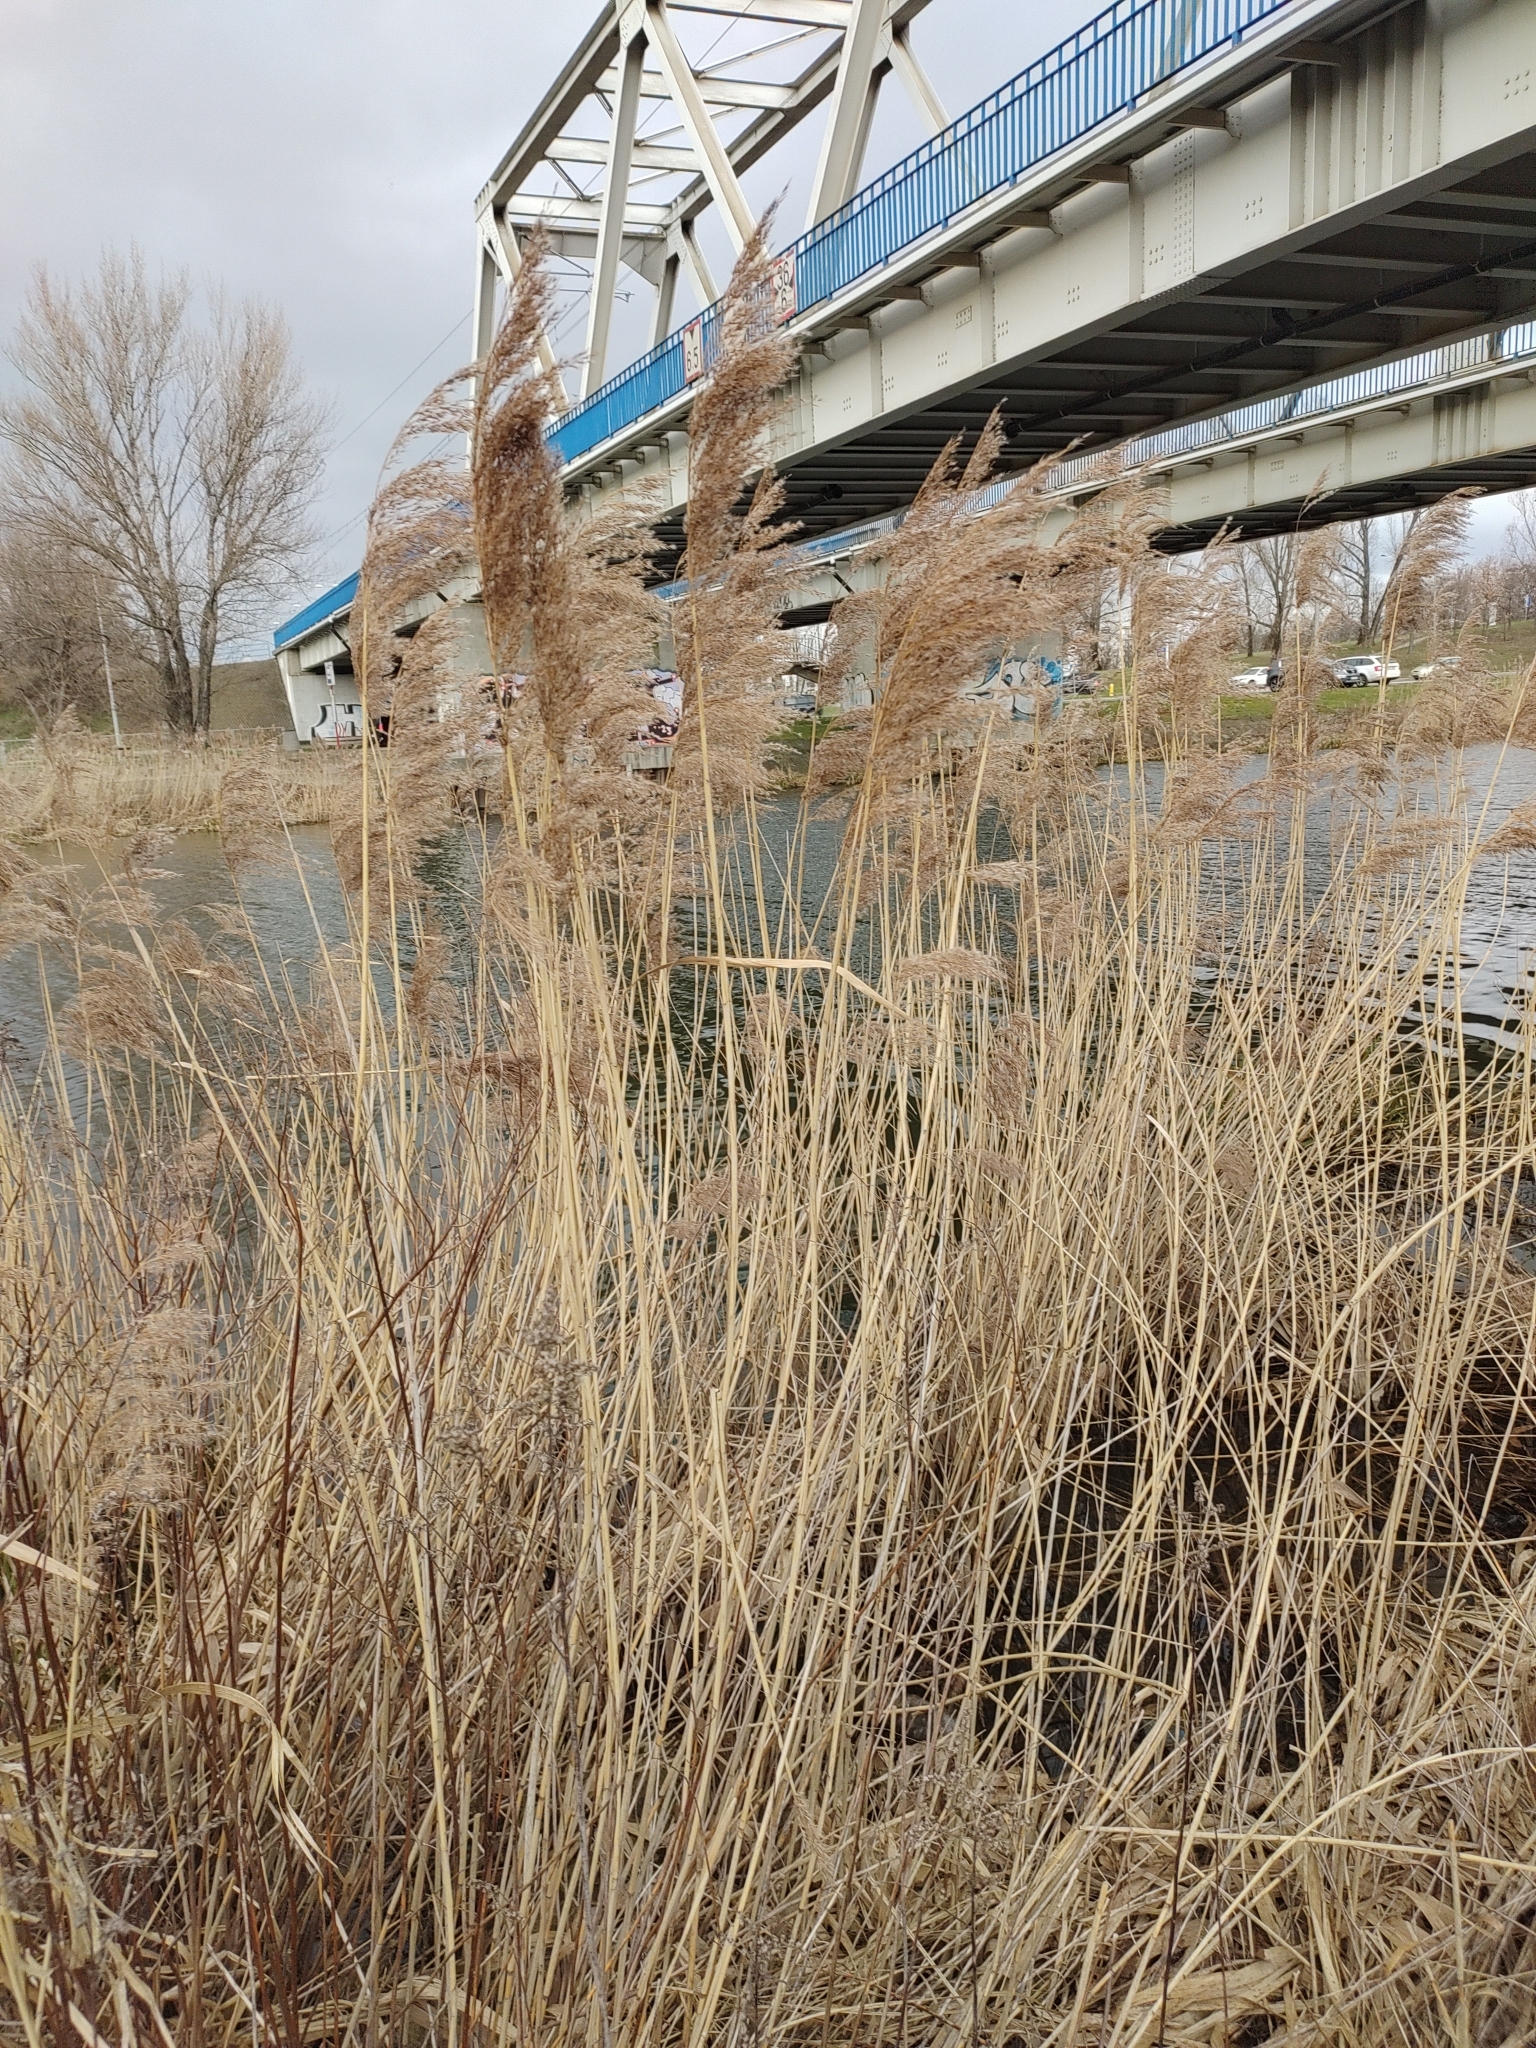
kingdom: Plantae
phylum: Tracheophyta
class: Liliopsida
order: Poales
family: Poaceae
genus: Phragmites
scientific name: Phragmites australis
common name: Common reed
